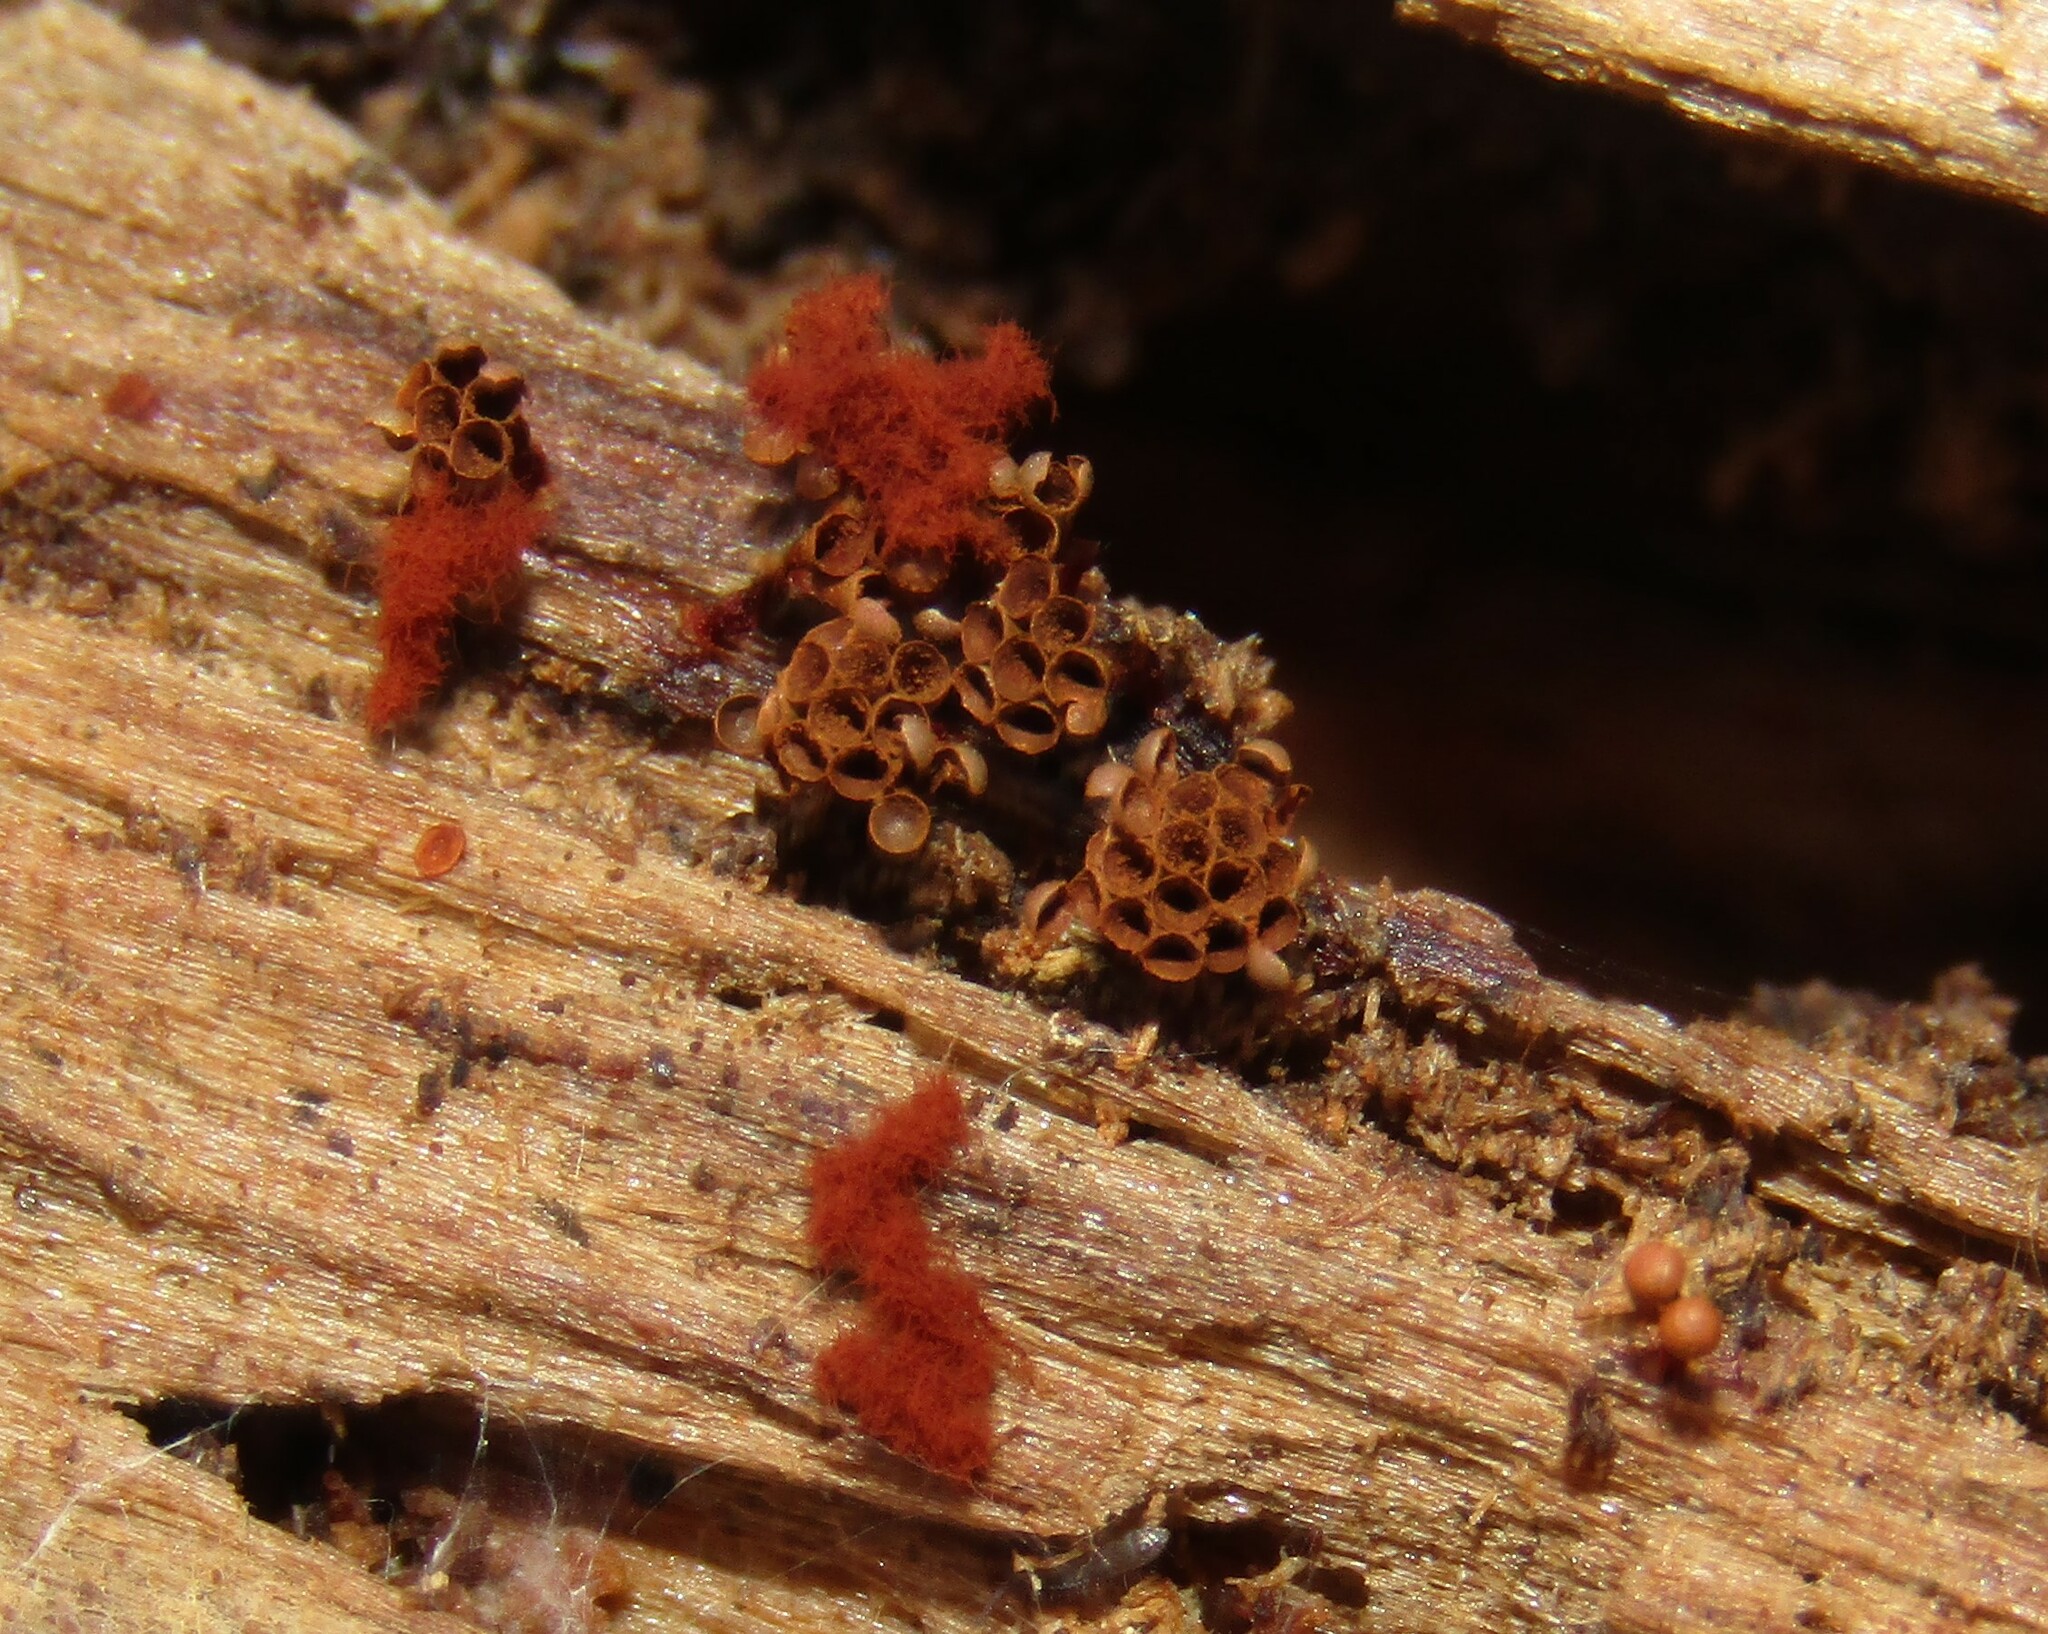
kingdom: Protozoa
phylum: Mycetozoa
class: Myxomycetes
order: Trichiales
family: Trichiaceae
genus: Metatrichia
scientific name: Metatrichia vesparia
